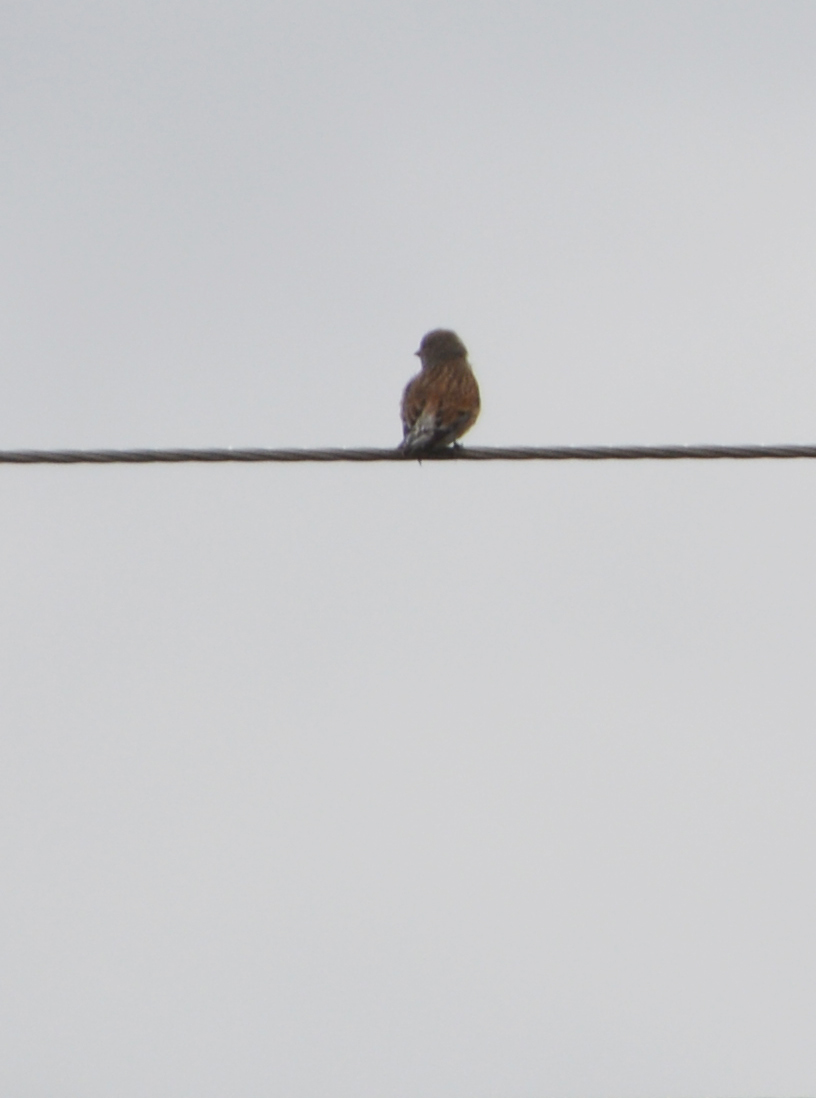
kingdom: Animalia
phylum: Chordata
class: Aves
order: Passeriformes
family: Fringillidae
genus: Linaria
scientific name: Linaria cannabina
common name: Common linnet
